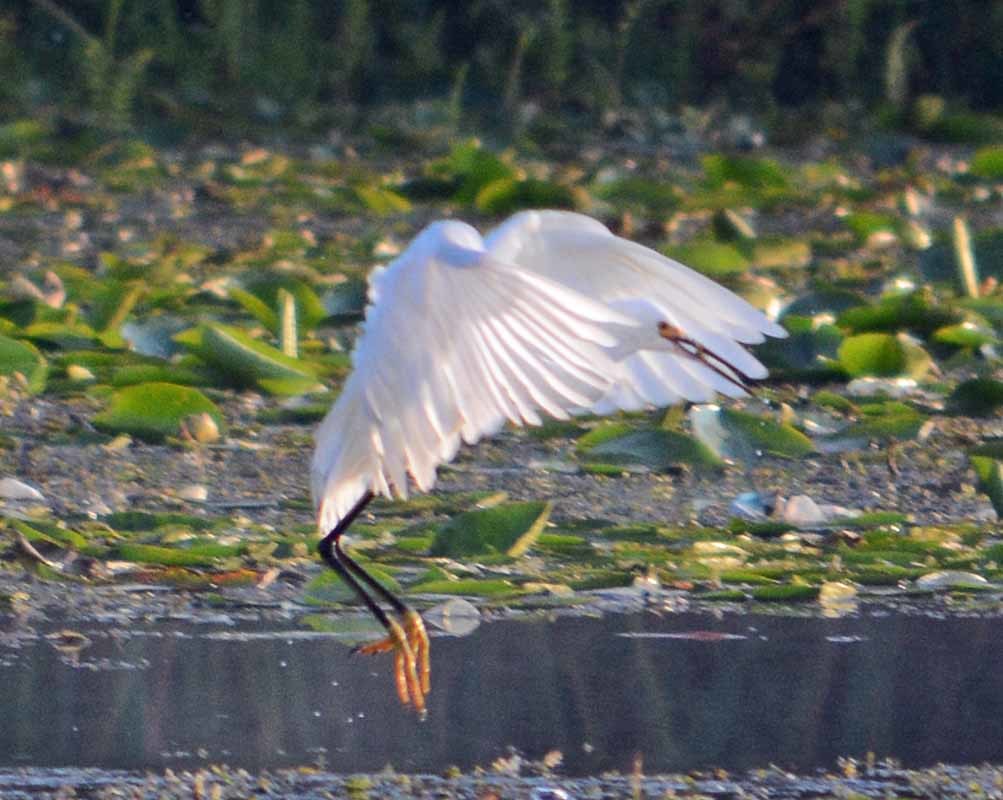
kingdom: Animalia
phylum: Chordata
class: Aves
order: Pelecaniformes
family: Ardeidae
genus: Egretta
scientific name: Egretta thula
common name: Snowy egret
